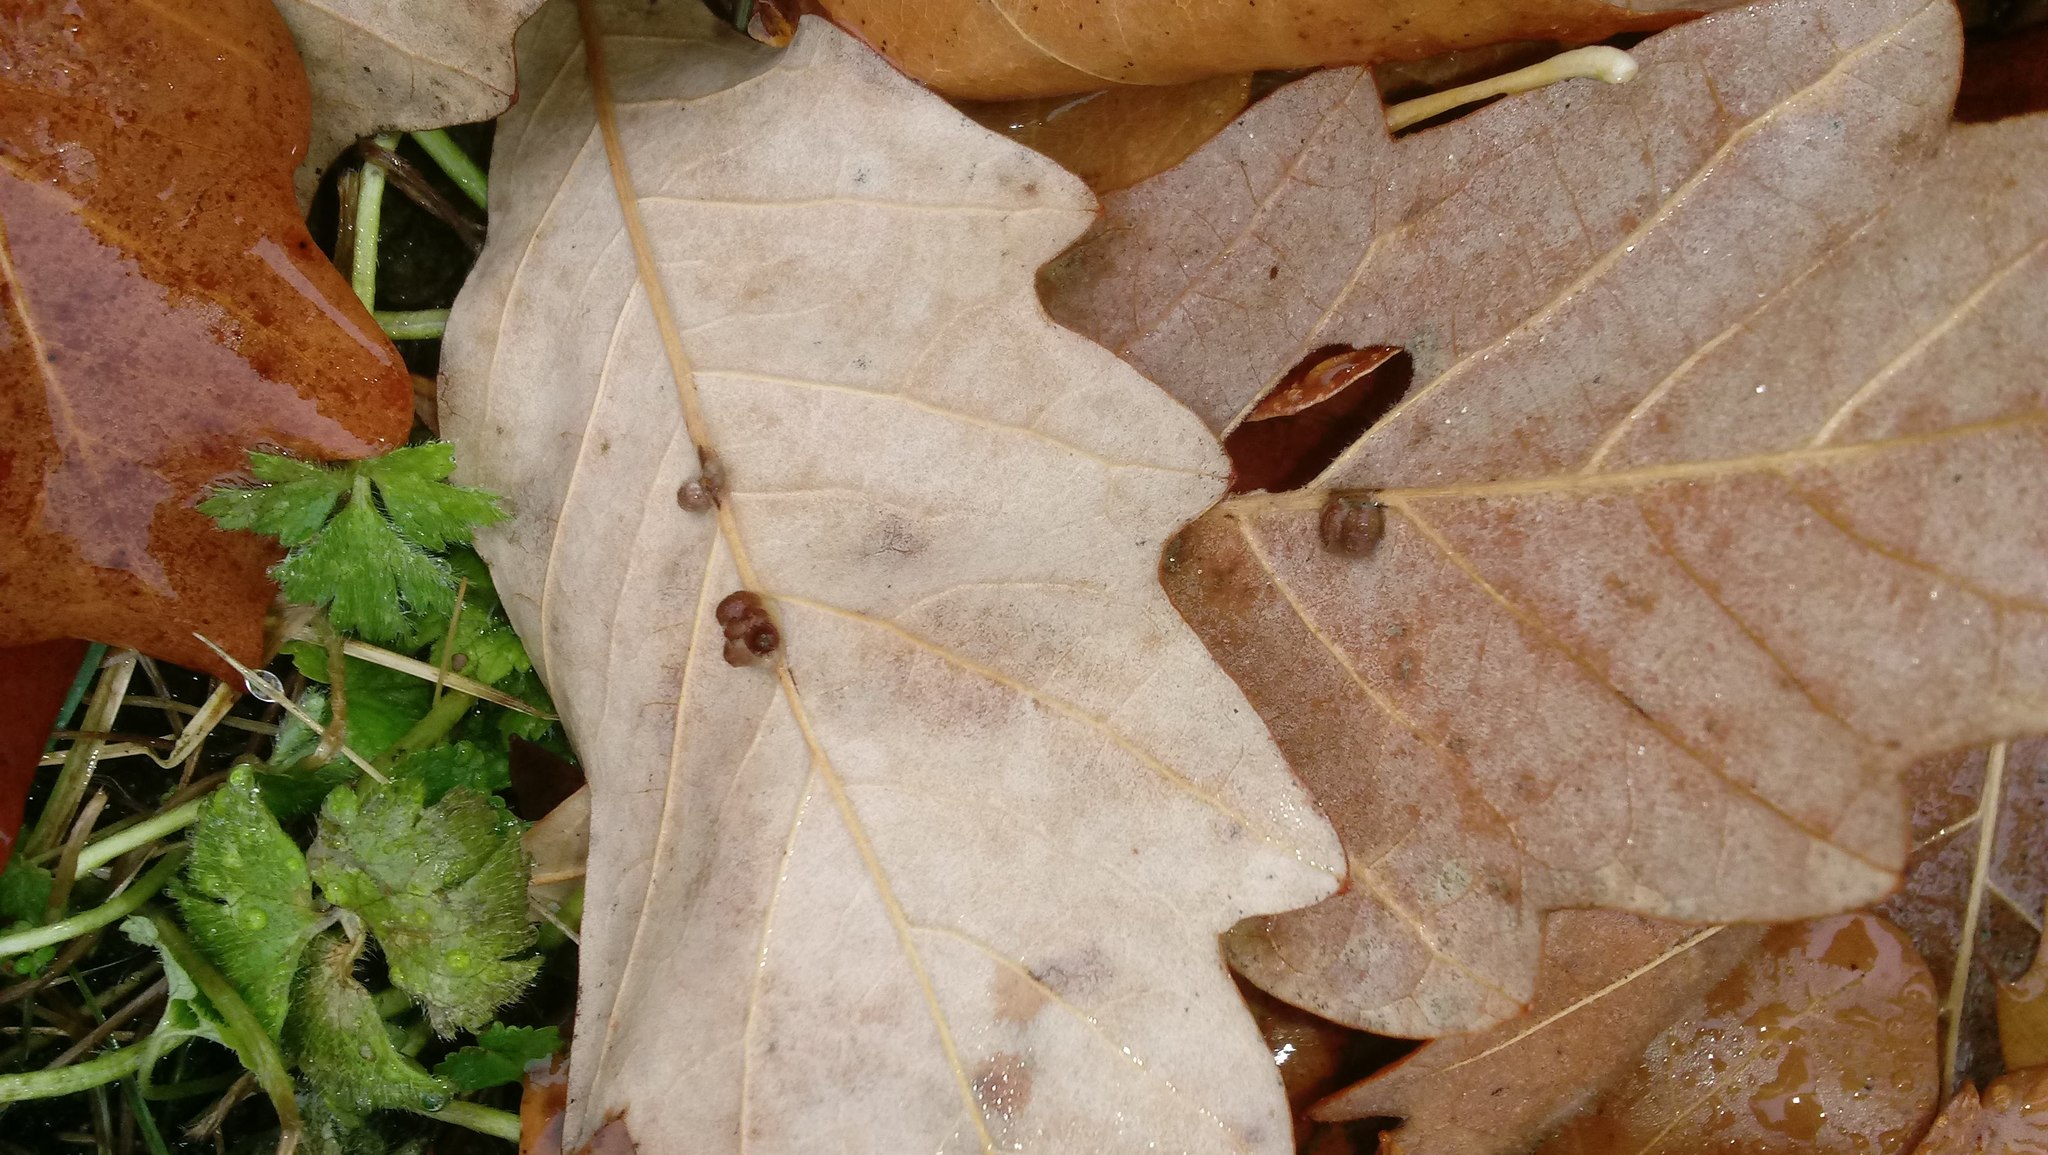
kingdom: Animalia
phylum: Arthropoda
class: Insecta
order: Hymenoptera
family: Cynipidae
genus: Andricus
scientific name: Andricus Druon ignotum
